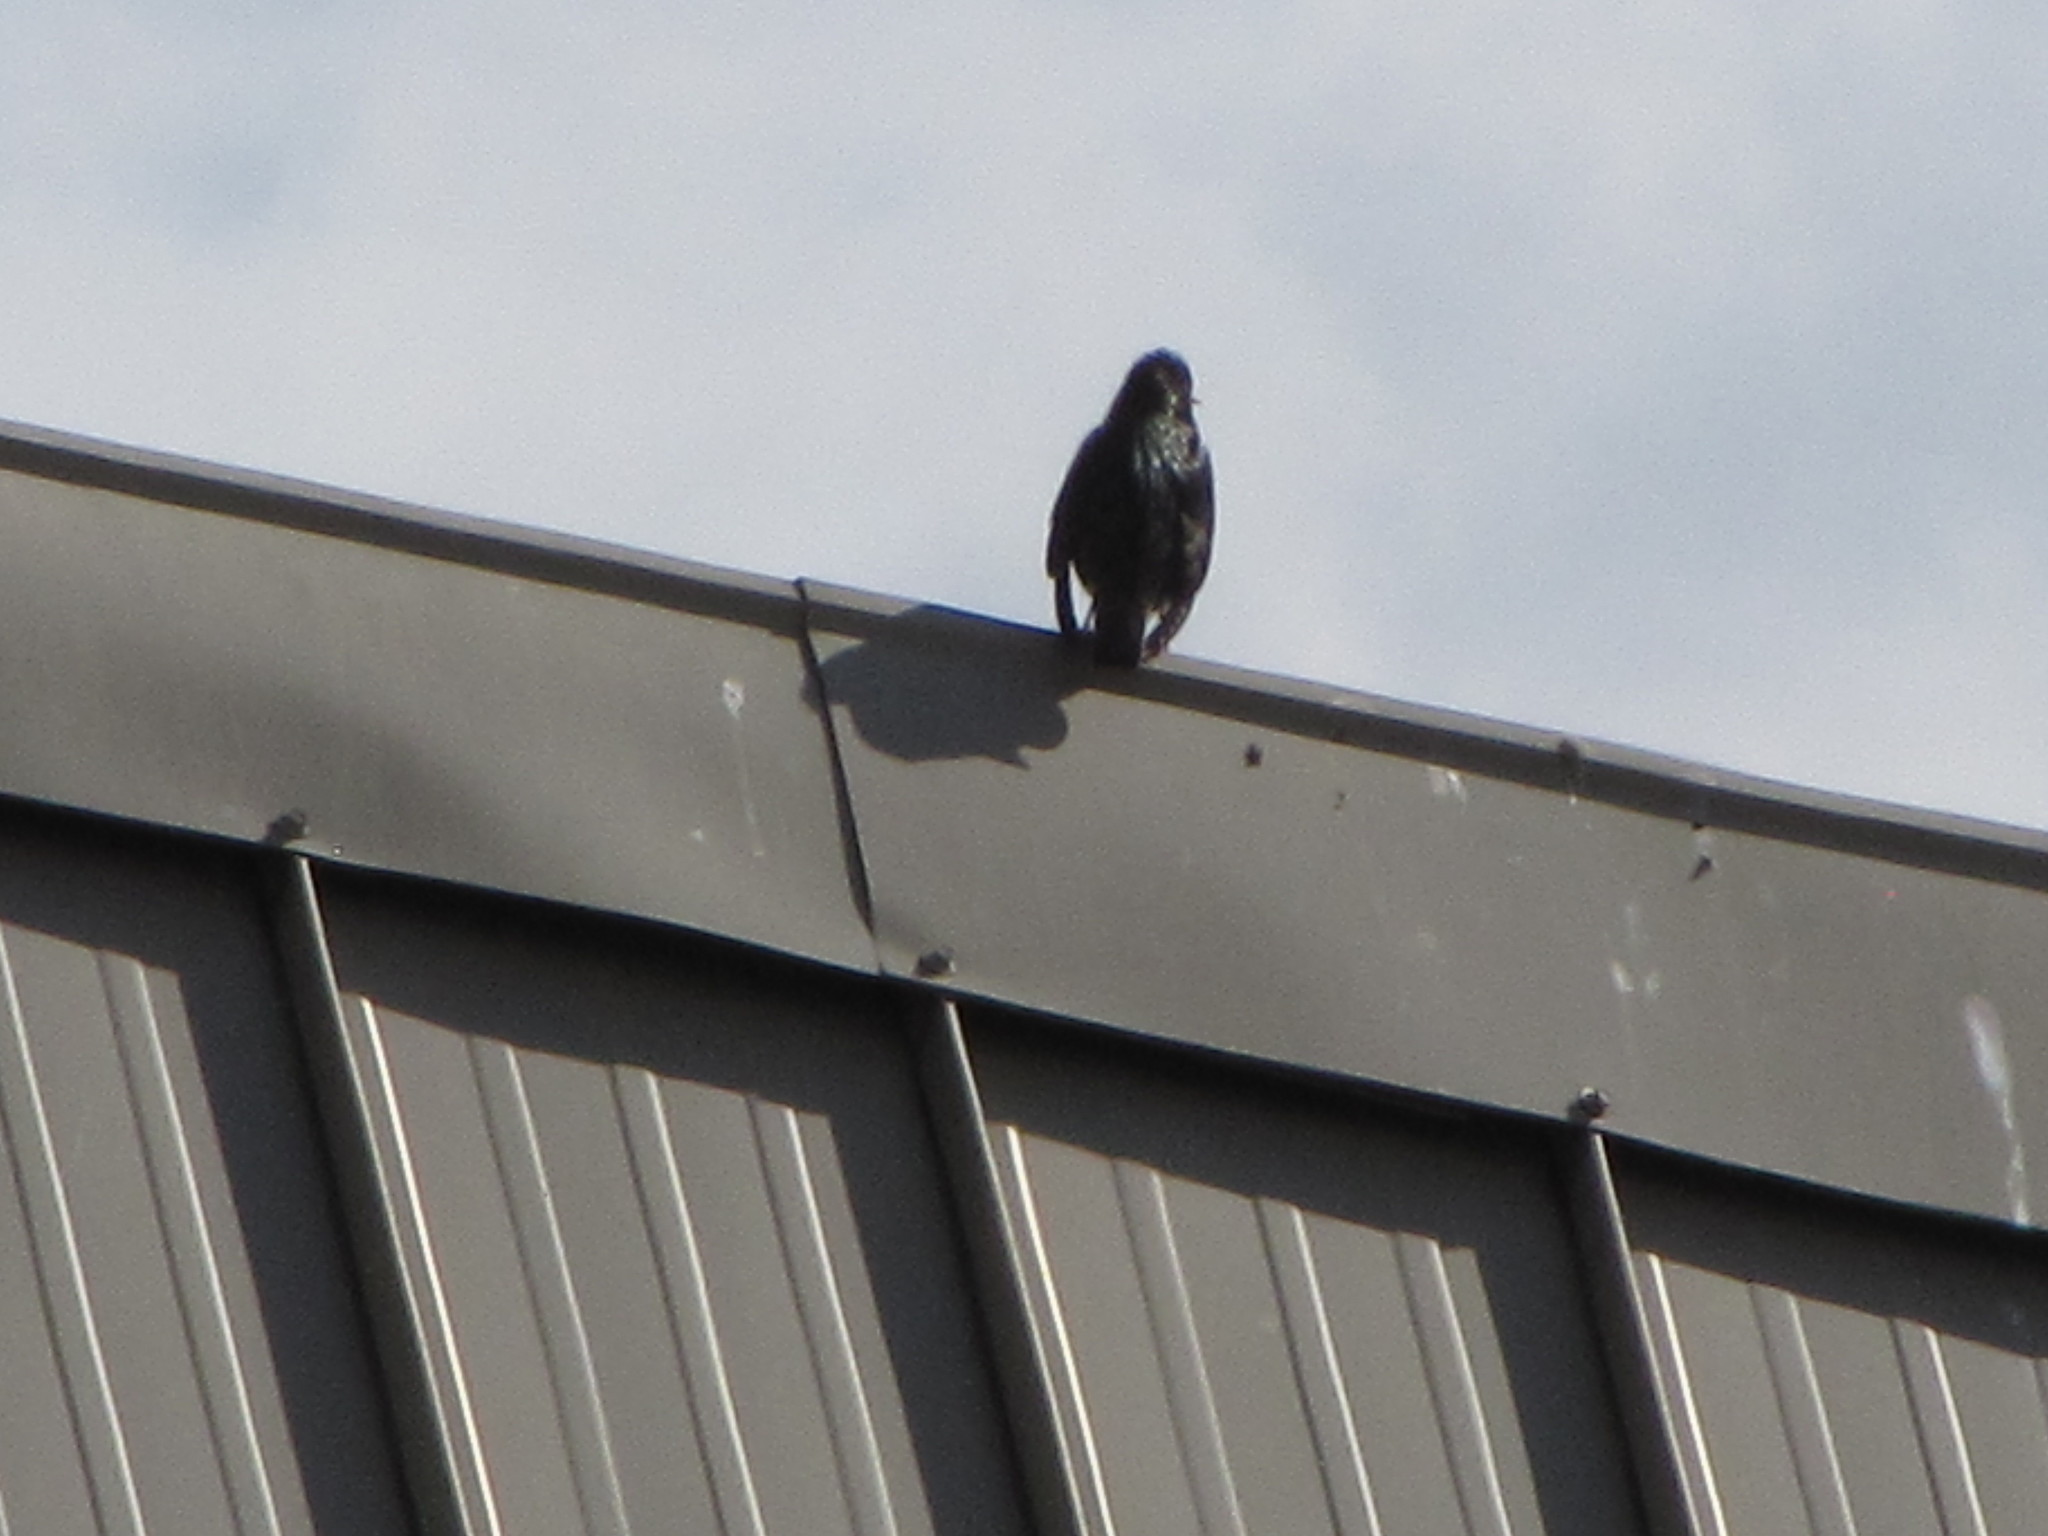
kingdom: Animalia
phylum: Chordata
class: Aves
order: Passeriformes
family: Sturnidae
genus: Sturnus
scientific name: Sturnus vulgaris
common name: Common starling
